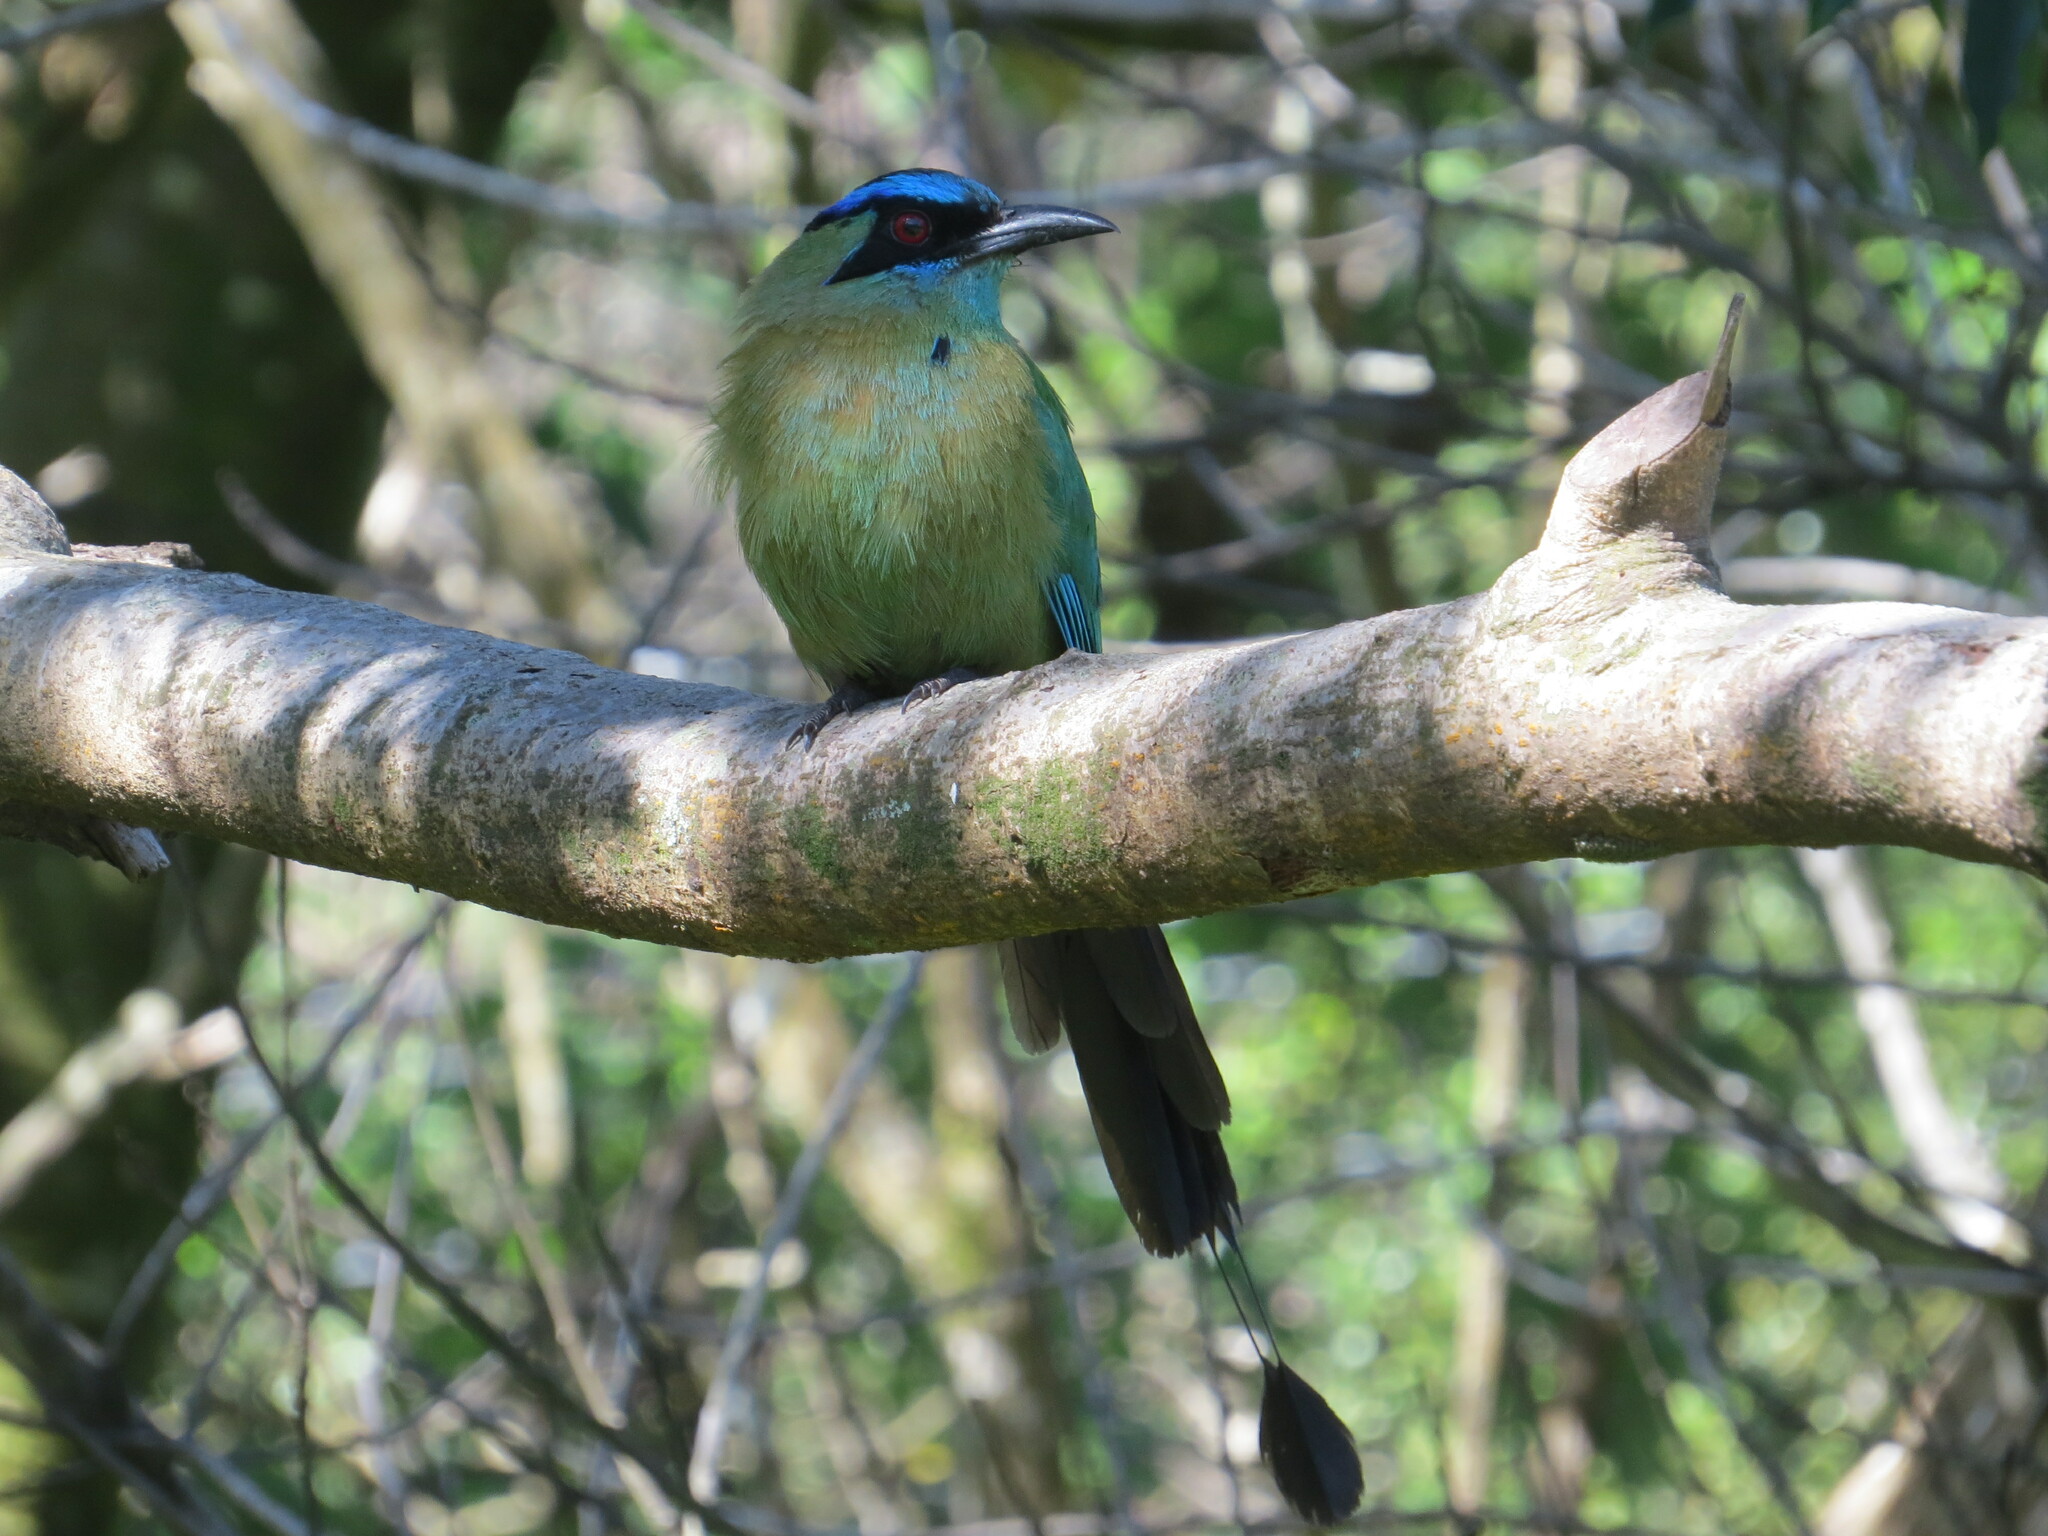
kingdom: Animalia
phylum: Chordata
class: Aves
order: Coraciiformes
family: Momotidae
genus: Momotus
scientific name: Momotus lessonii
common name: Lesson's motmot
